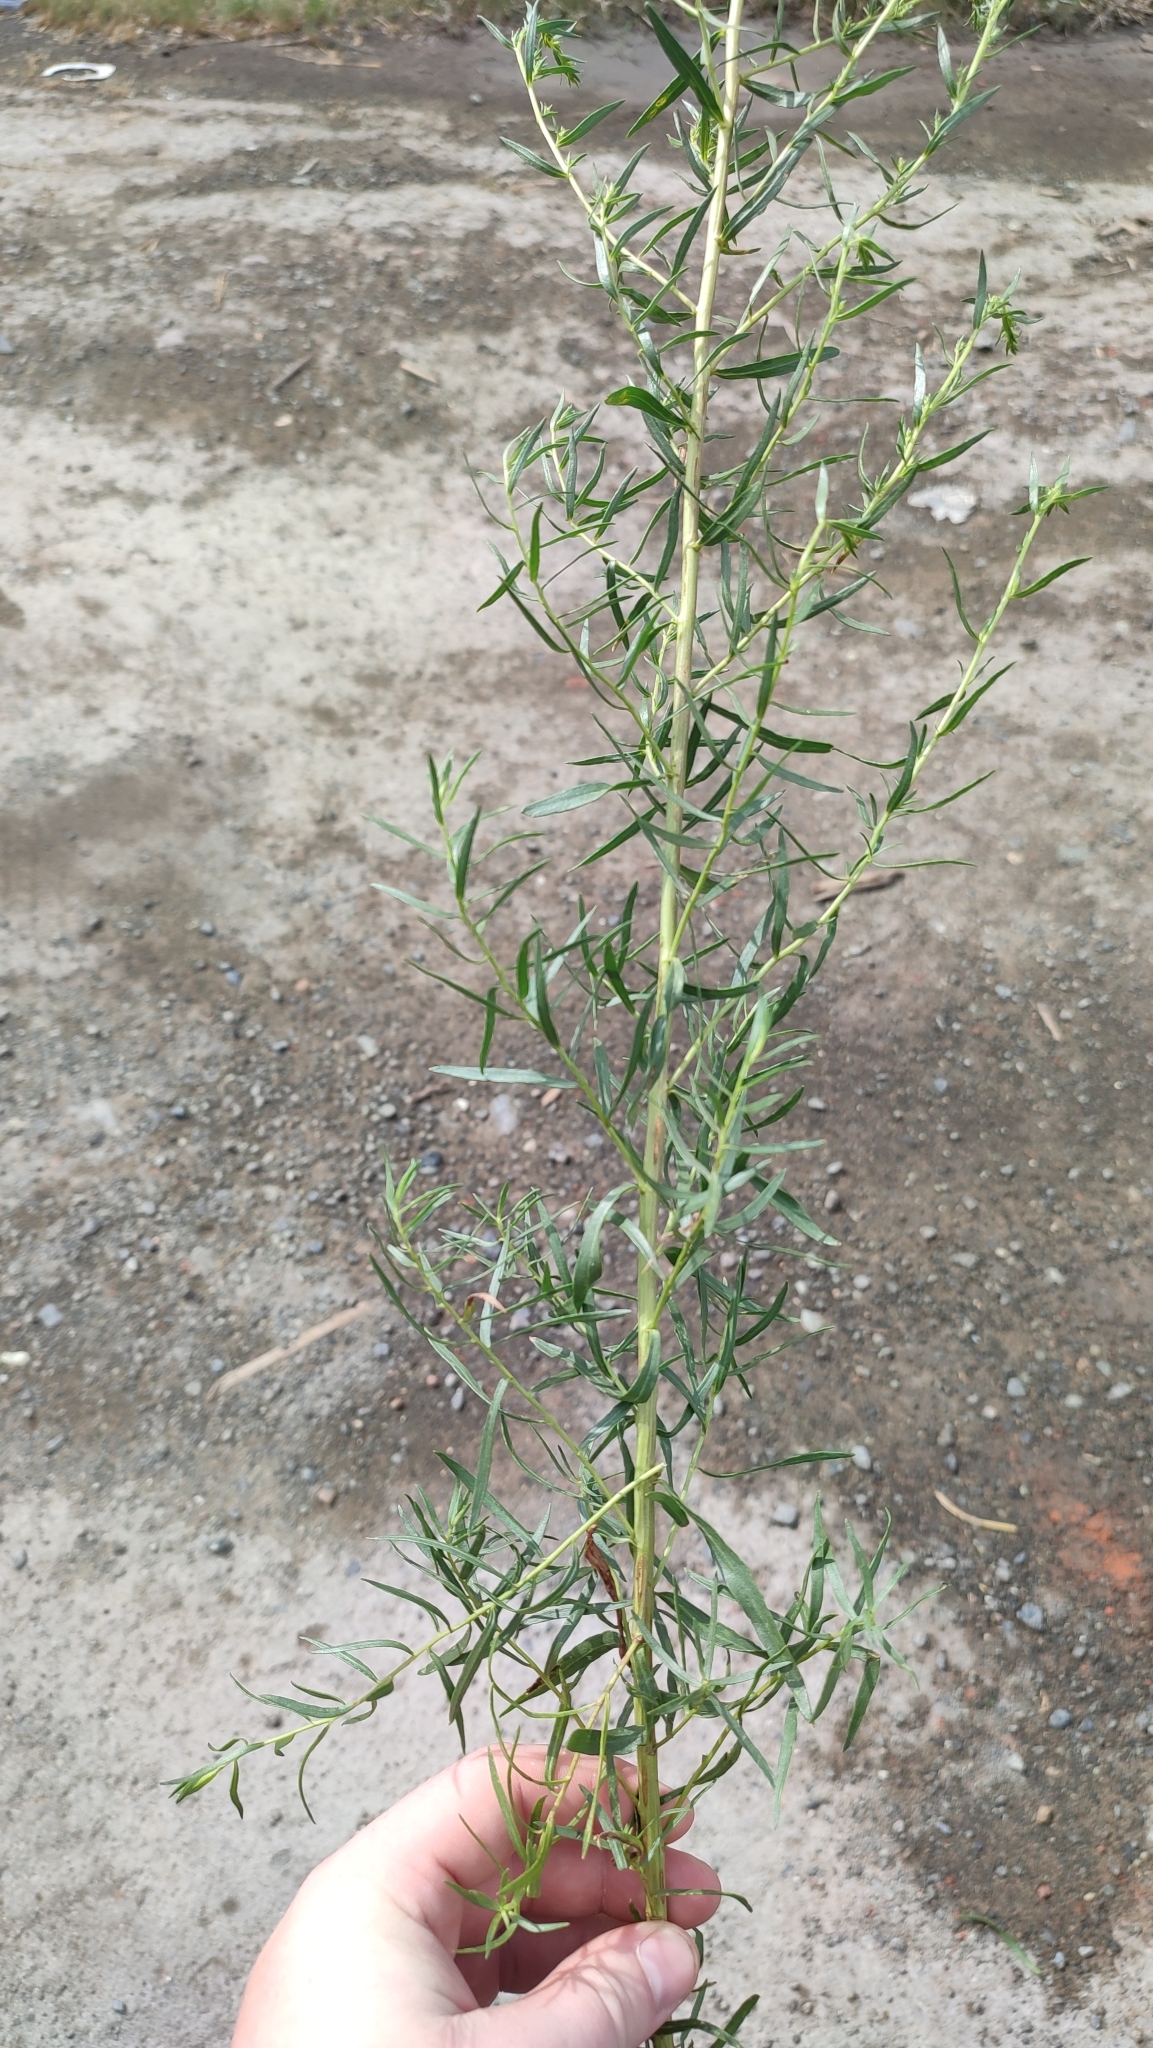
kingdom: Plantae
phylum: Tracheophyta
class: Magnoliopsida
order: Asterales
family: Asteraceae
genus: Artemisia
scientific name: Artemisia dracunculus
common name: Tarragon
